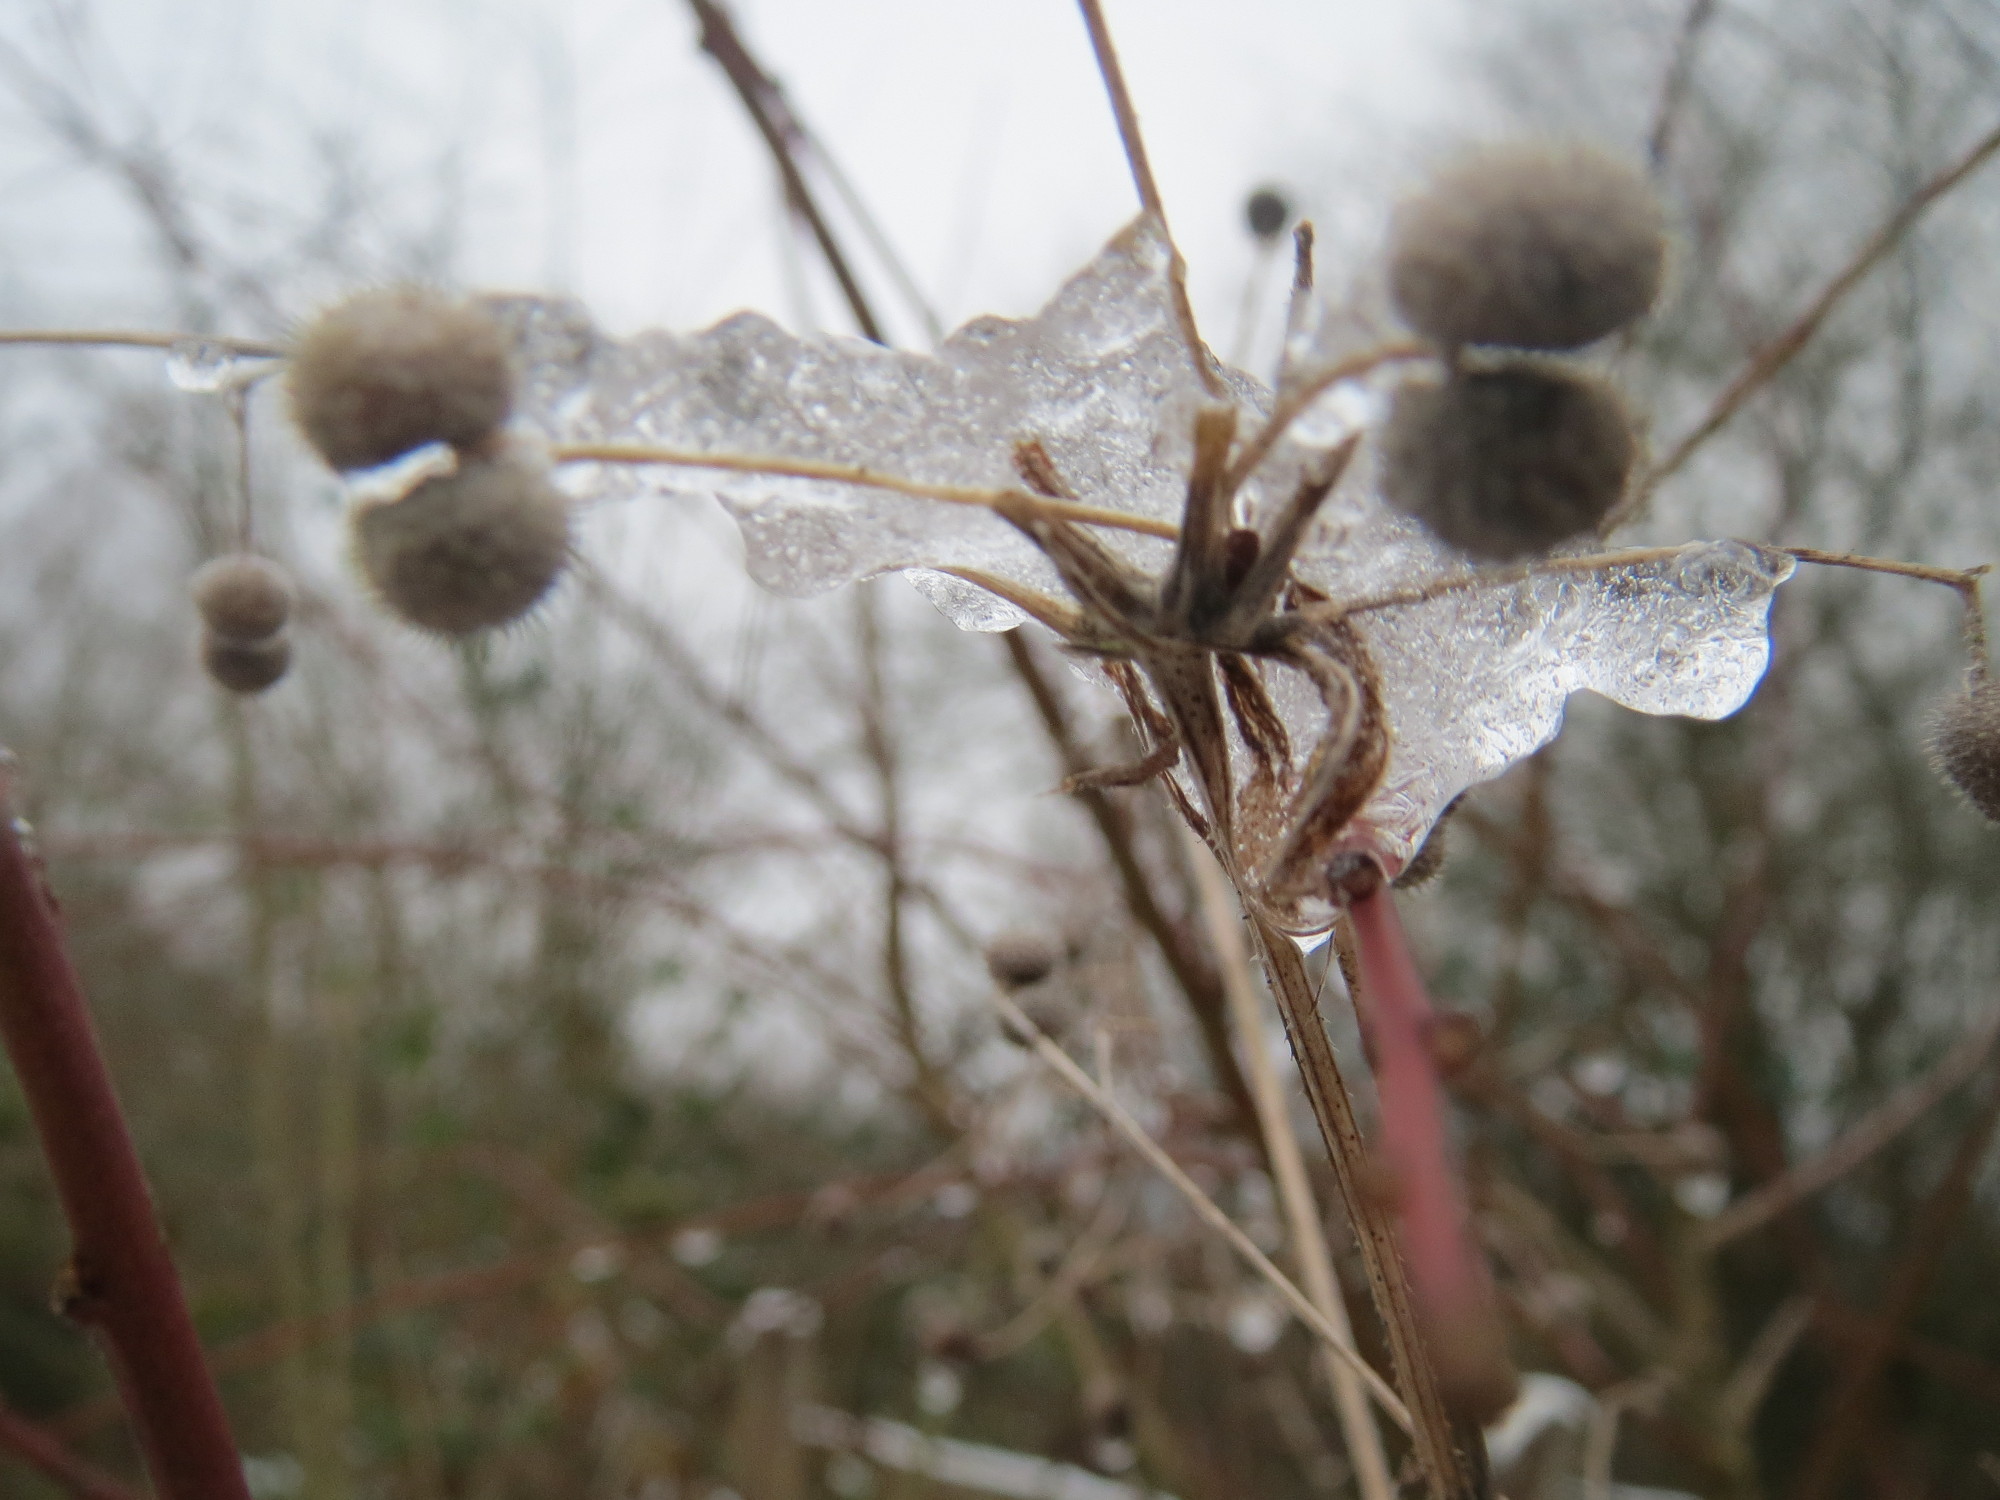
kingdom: Plantae
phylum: Tracheophyta
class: Magnoliopsida
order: Gentianales
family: Rubiaceae
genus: Galium
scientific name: Galium aparine
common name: Cleavers
